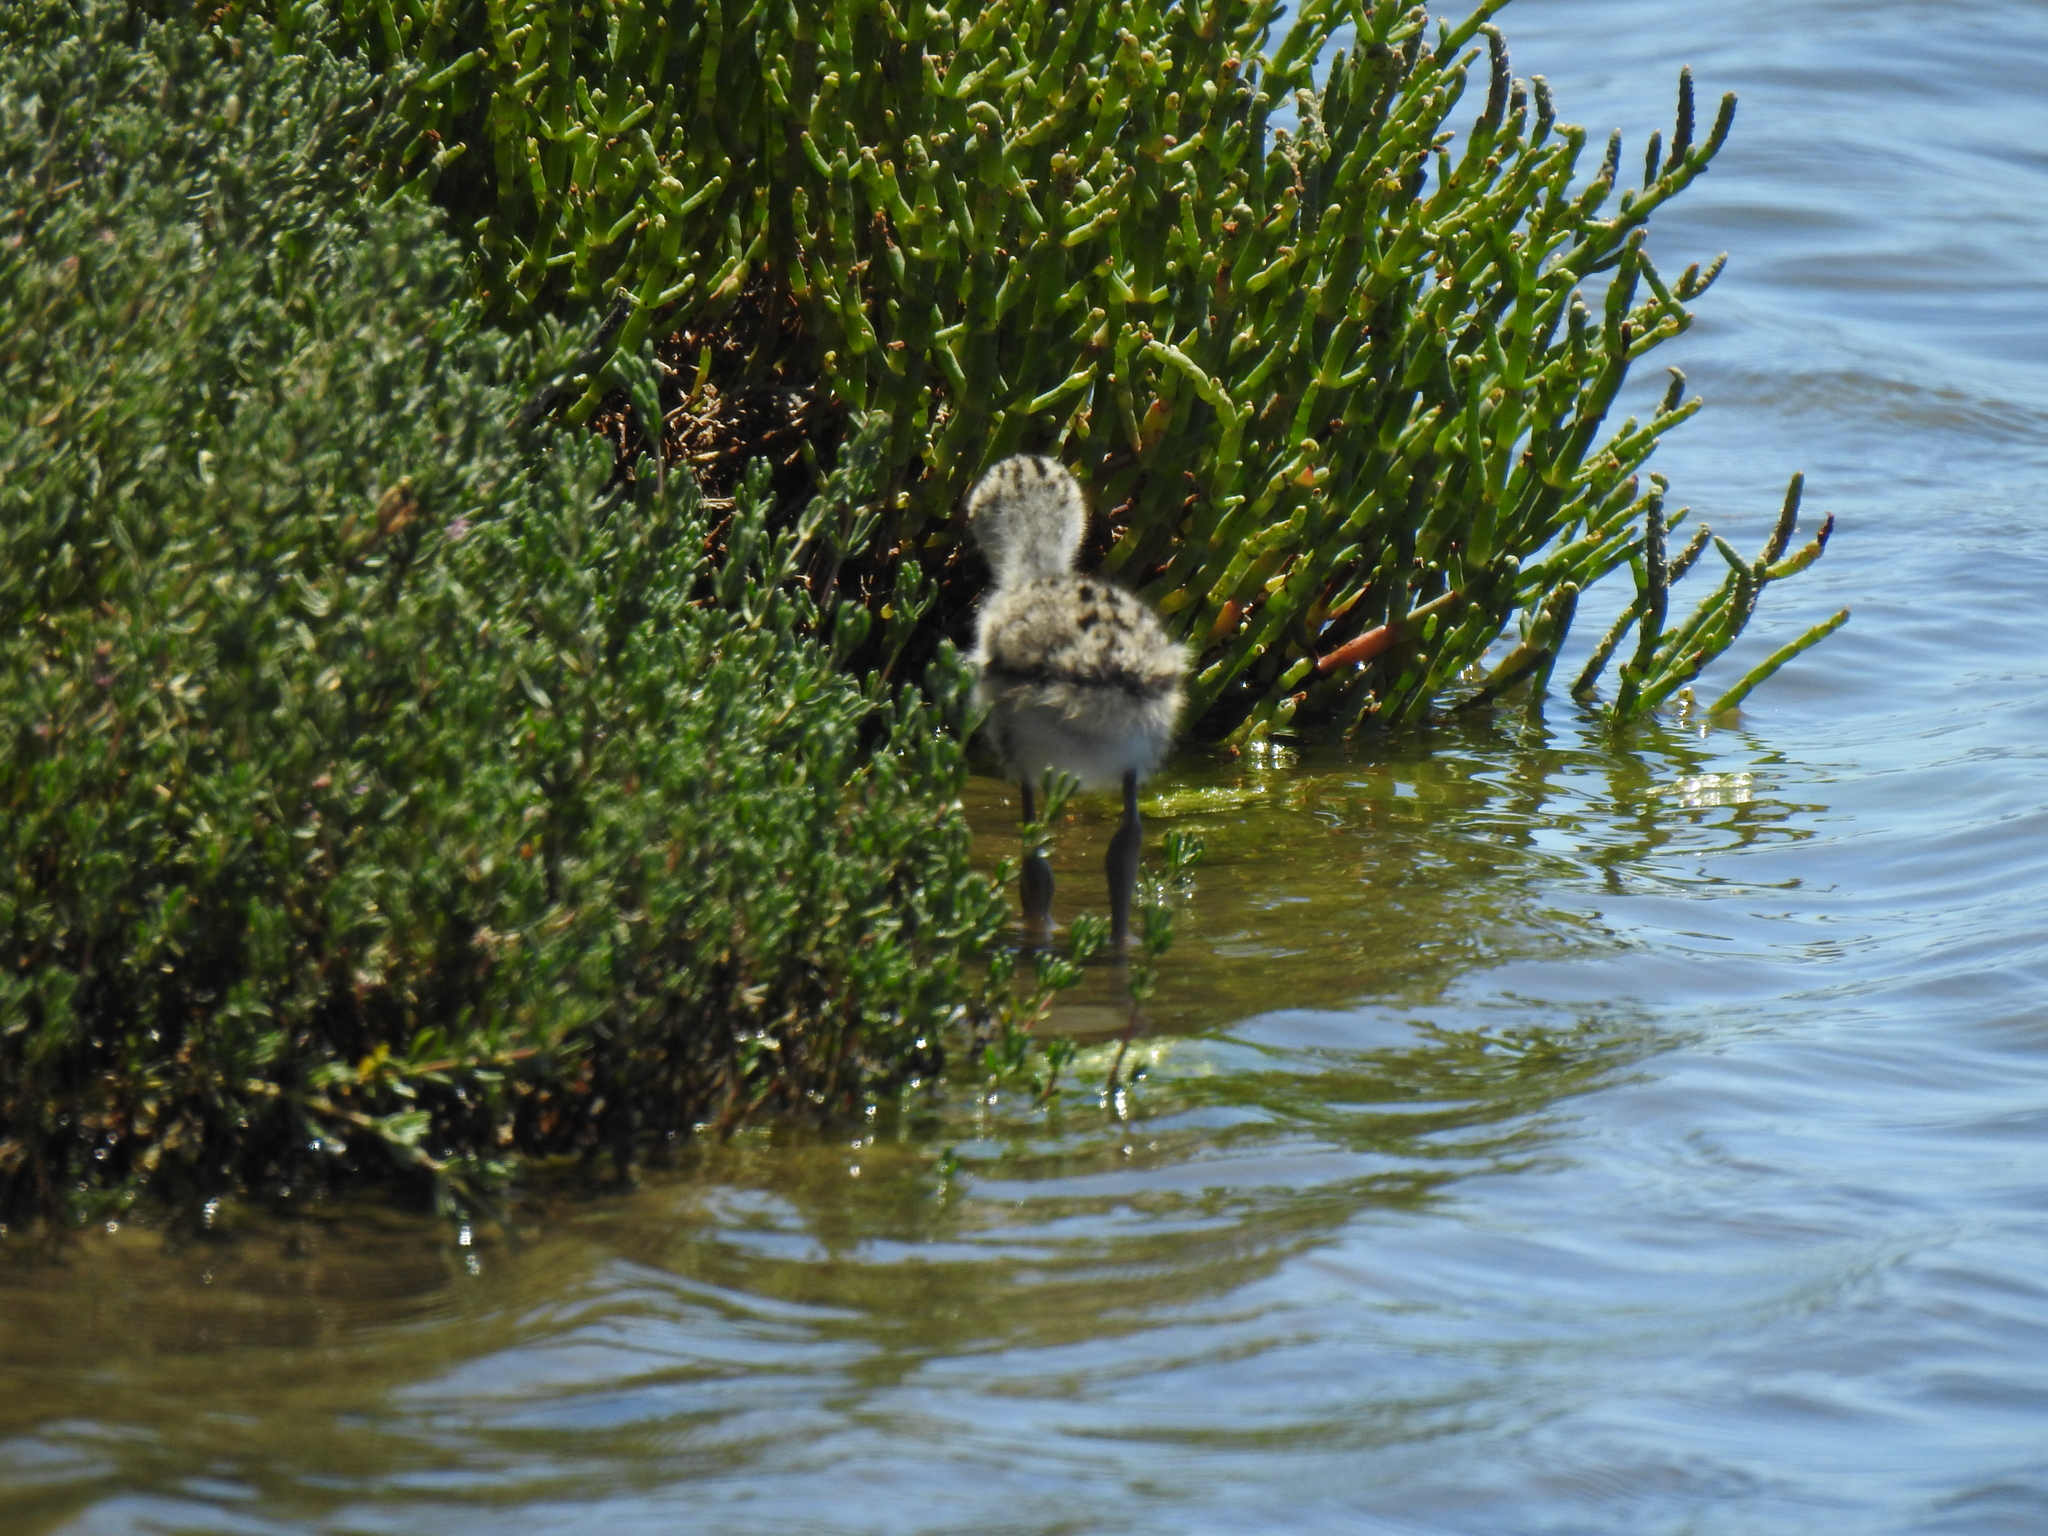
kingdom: Animalia
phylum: Chordata
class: Aves
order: Charadriiformes
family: Recurvirostridae
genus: Himantopus
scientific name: Himantopus mexicanus
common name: Black-necked stilt
